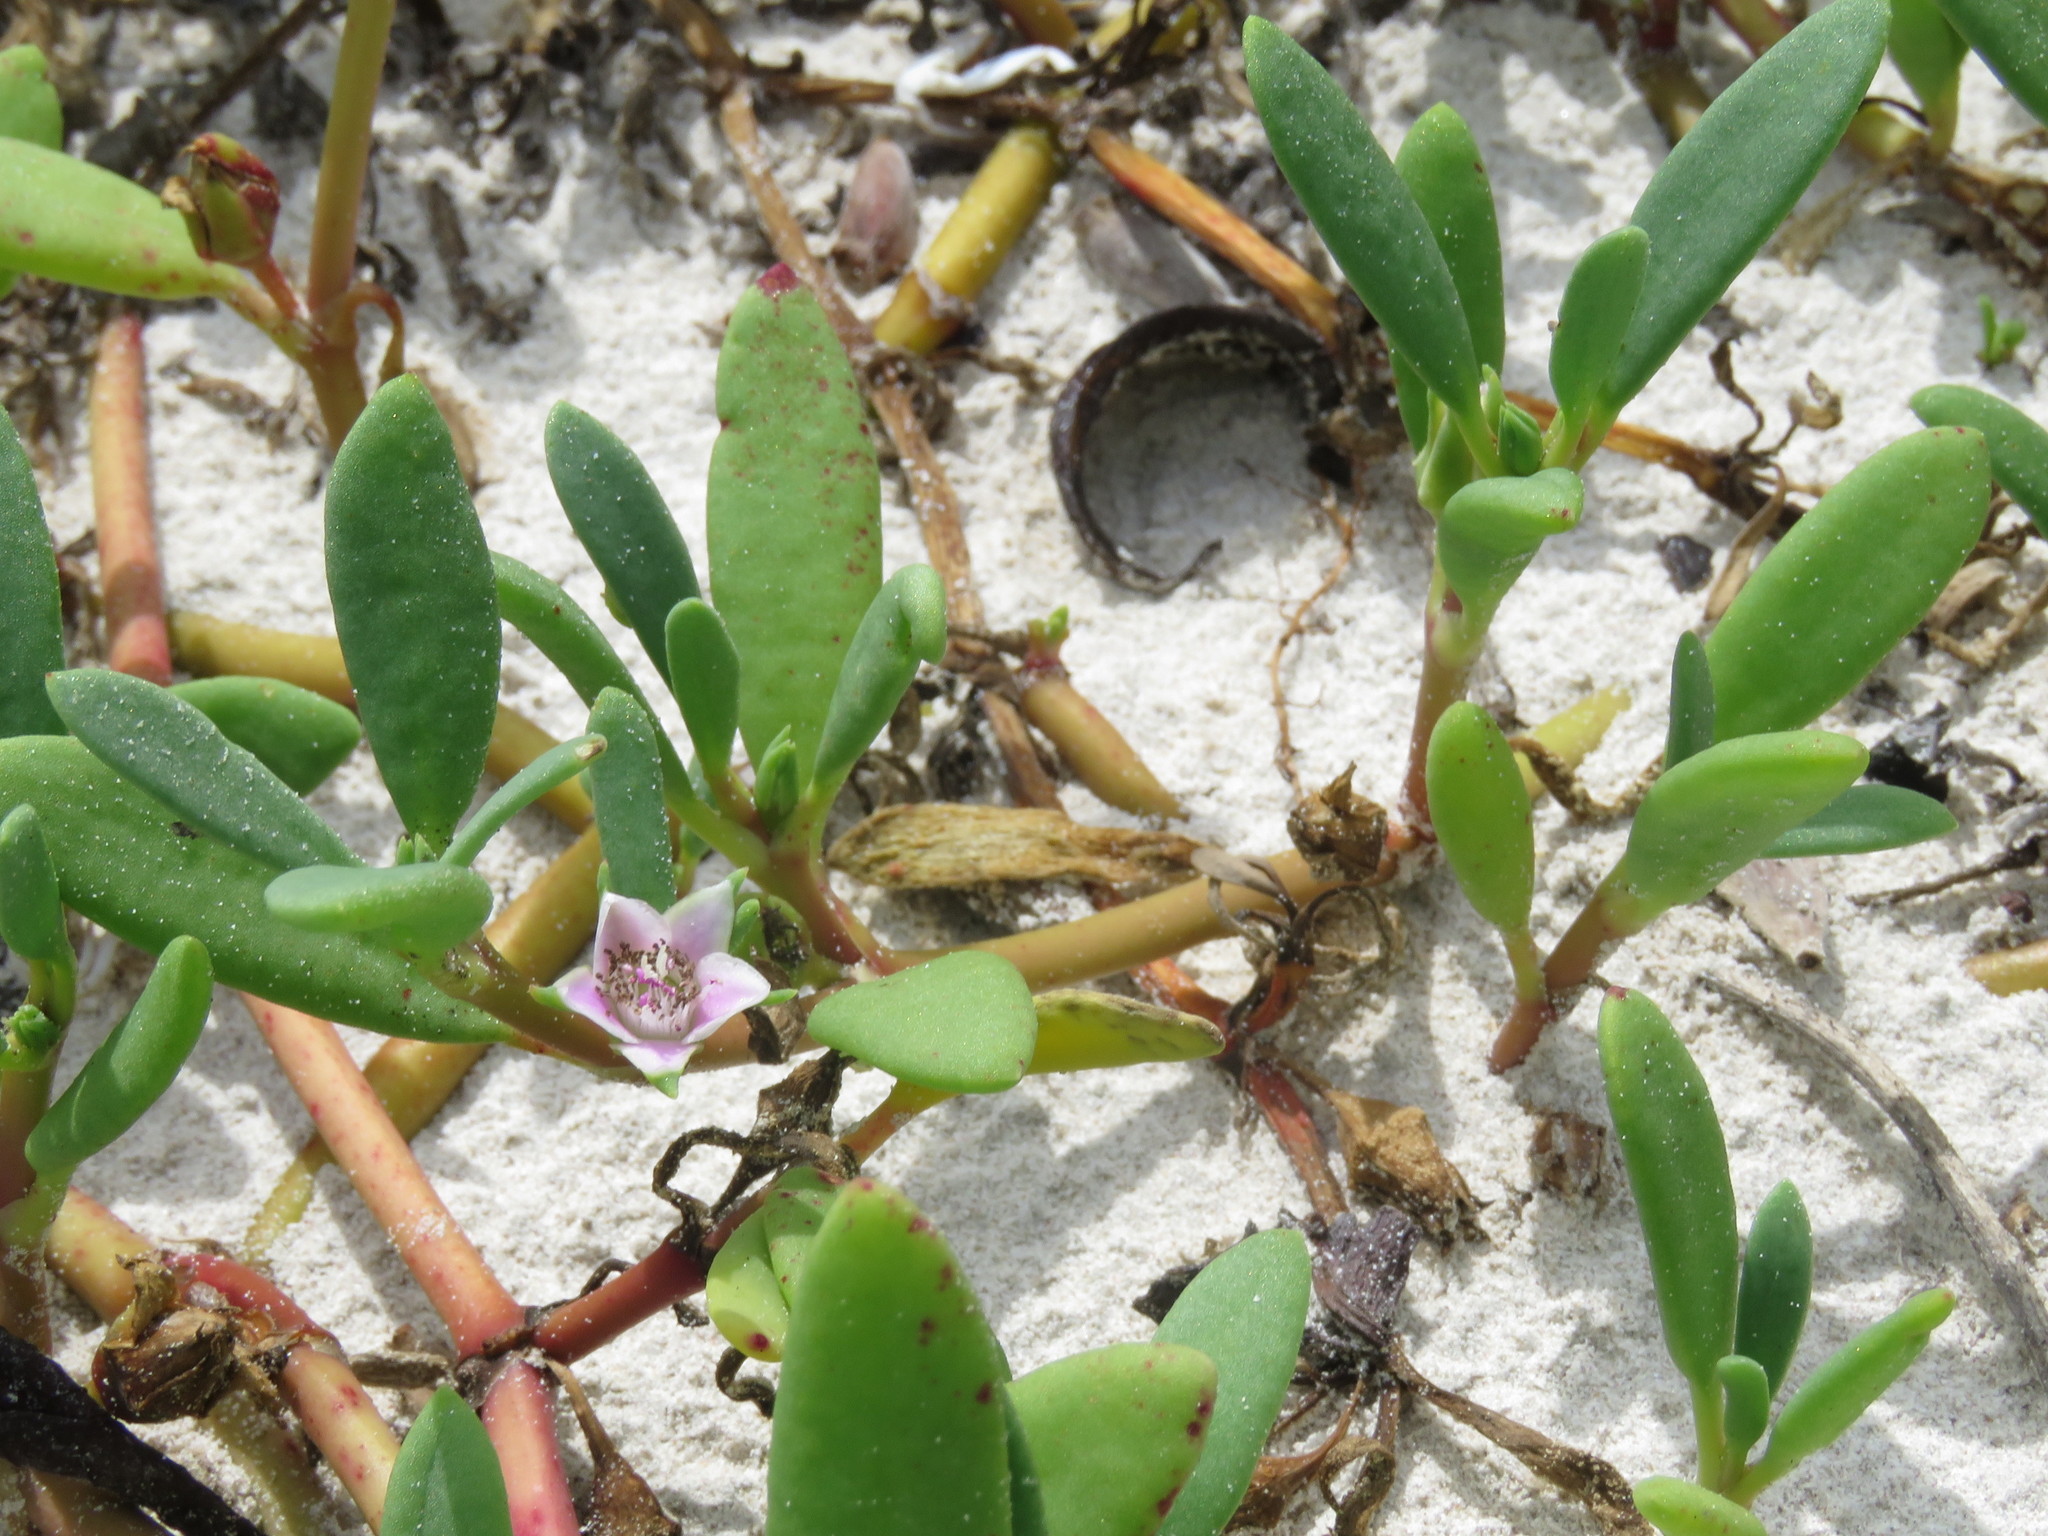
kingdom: Plantae
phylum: Tracheophyta
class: Magnoliopsida
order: Caryophyllales
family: Aizoaceae
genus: Sesuvium
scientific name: Sesuvium portulacastrum
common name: Sea-purslane
